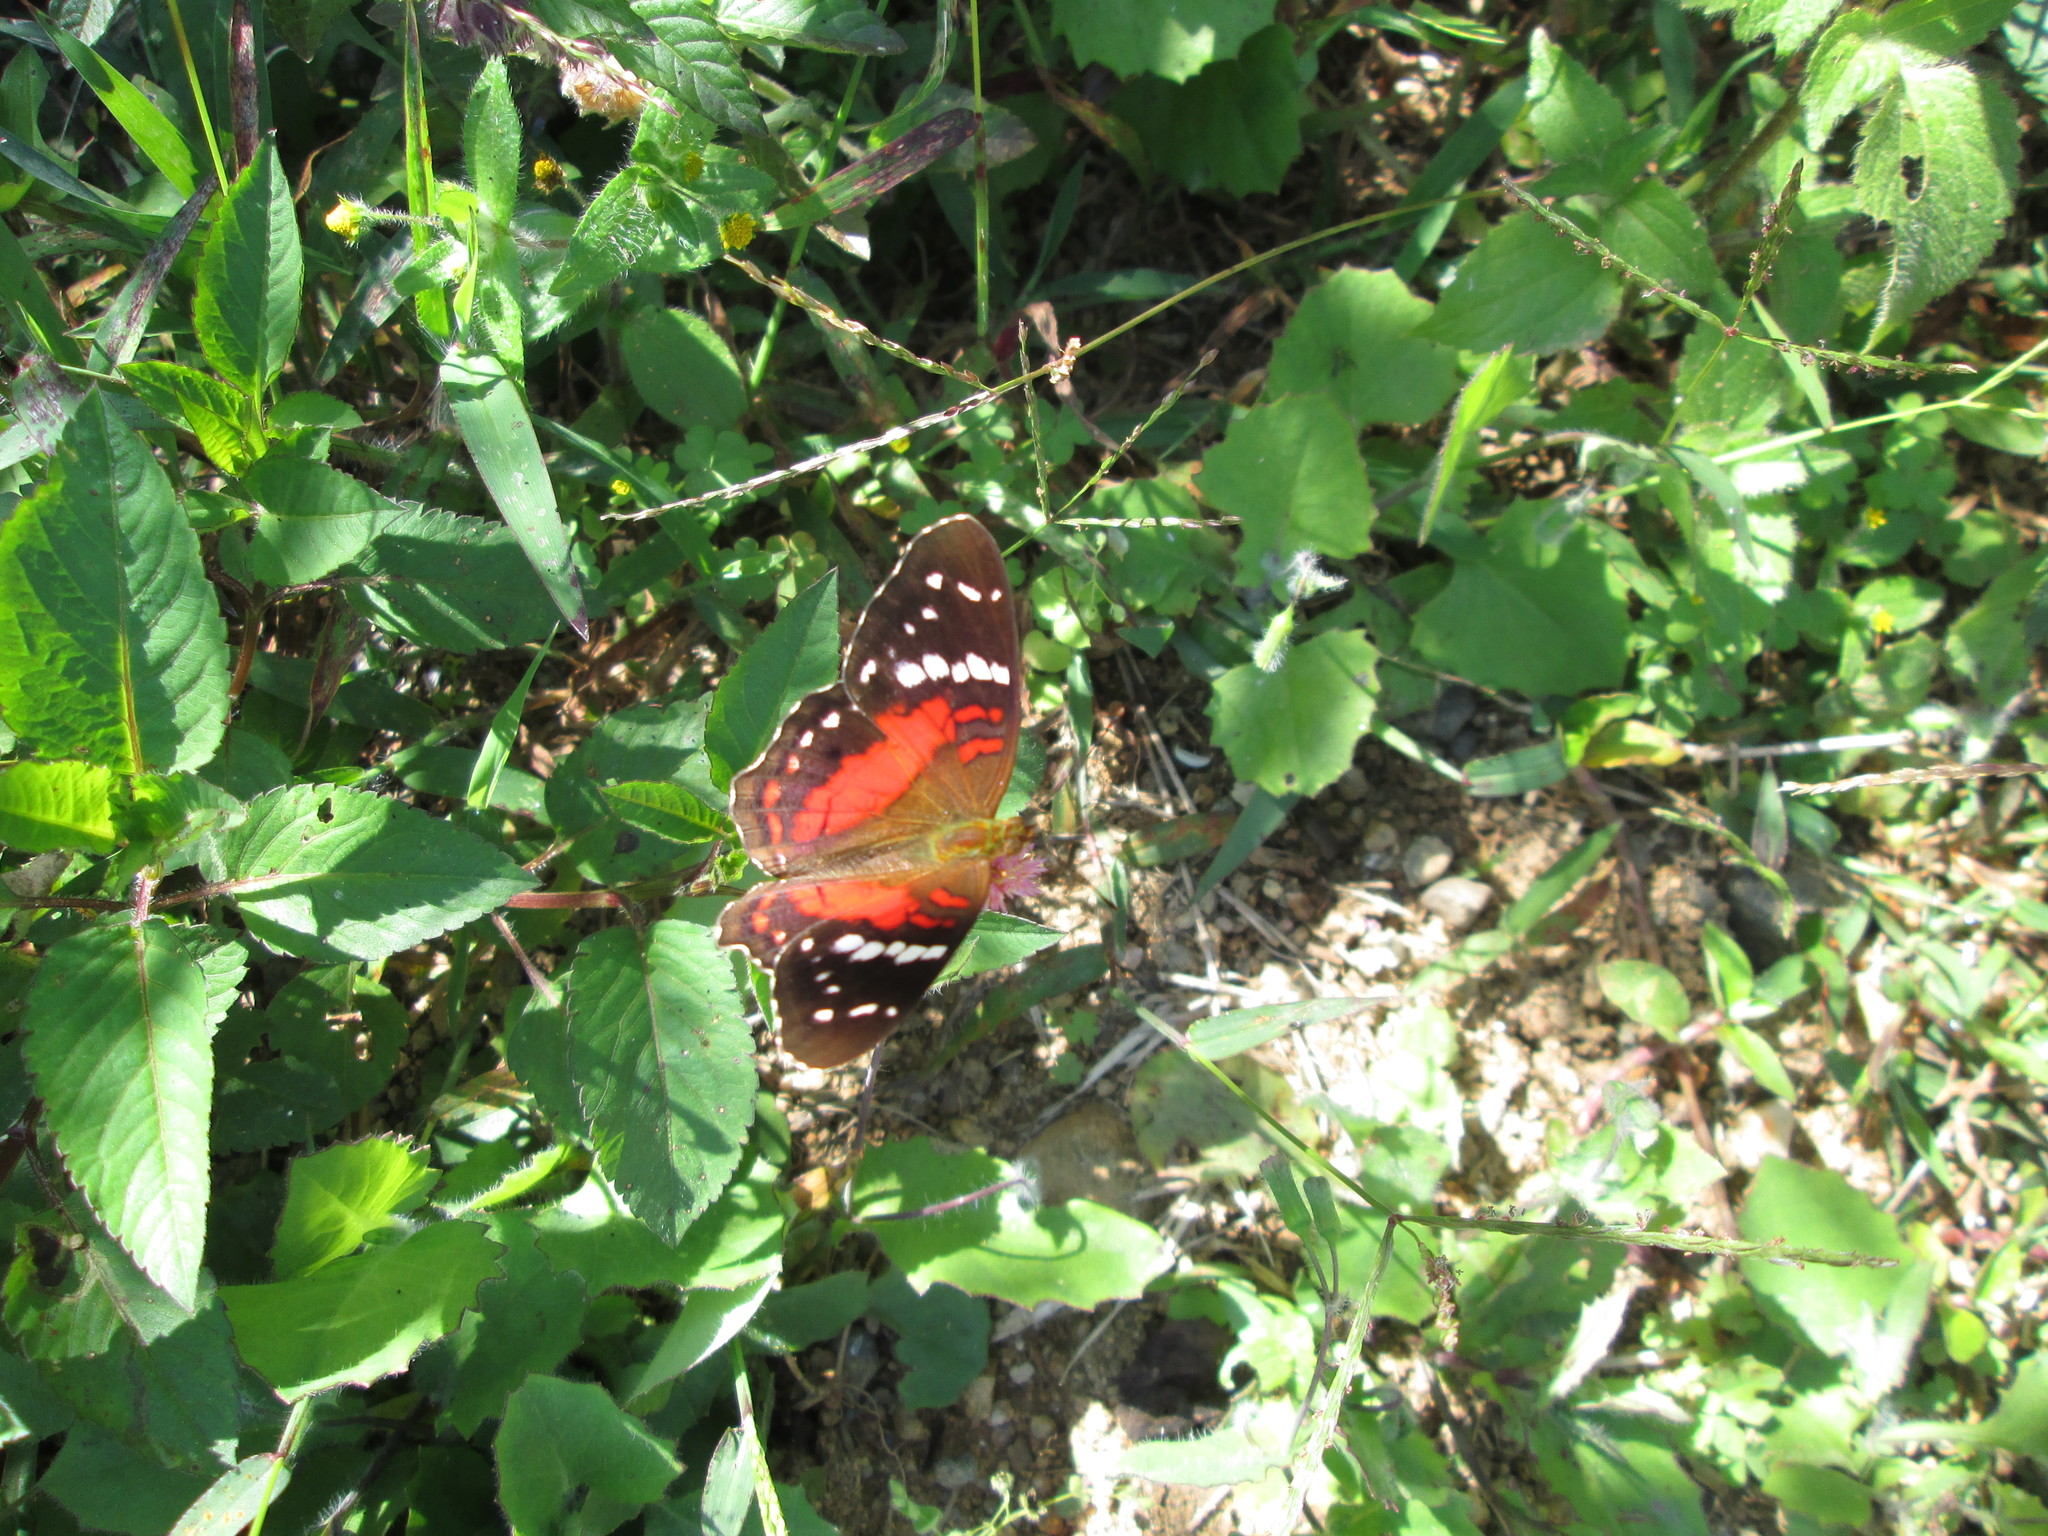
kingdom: Animalia
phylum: Arthropoda
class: Insecta
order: Lepidoptera
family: Nymphalidae
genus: Anartia
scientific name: Anartia amathea
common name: Red peacock
